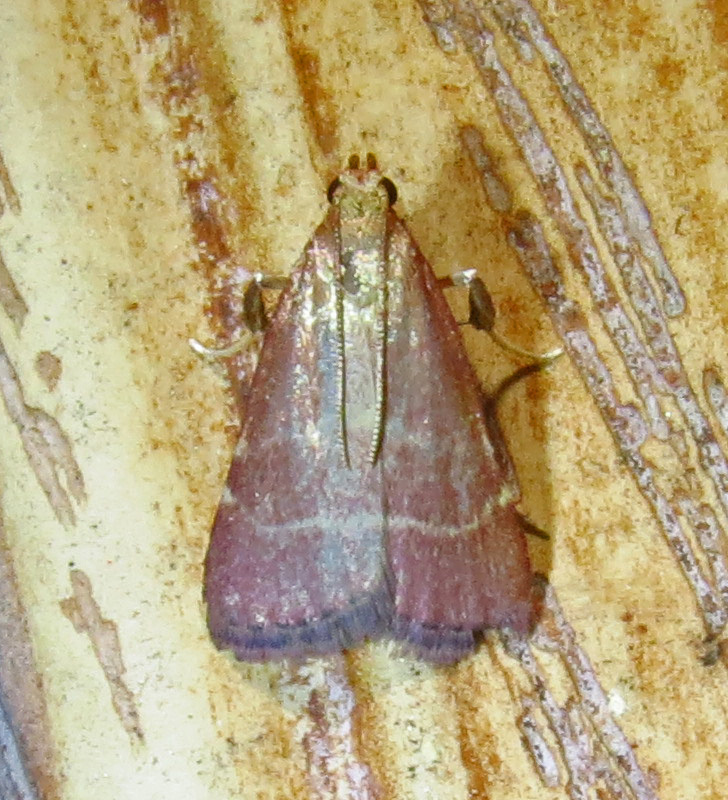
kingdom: Animalia
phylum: Arthropoda
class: Insecta
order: Lepidoptera
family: Pyralidae
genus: Arta
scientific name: Arta statalis
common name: Posturing arta moth
